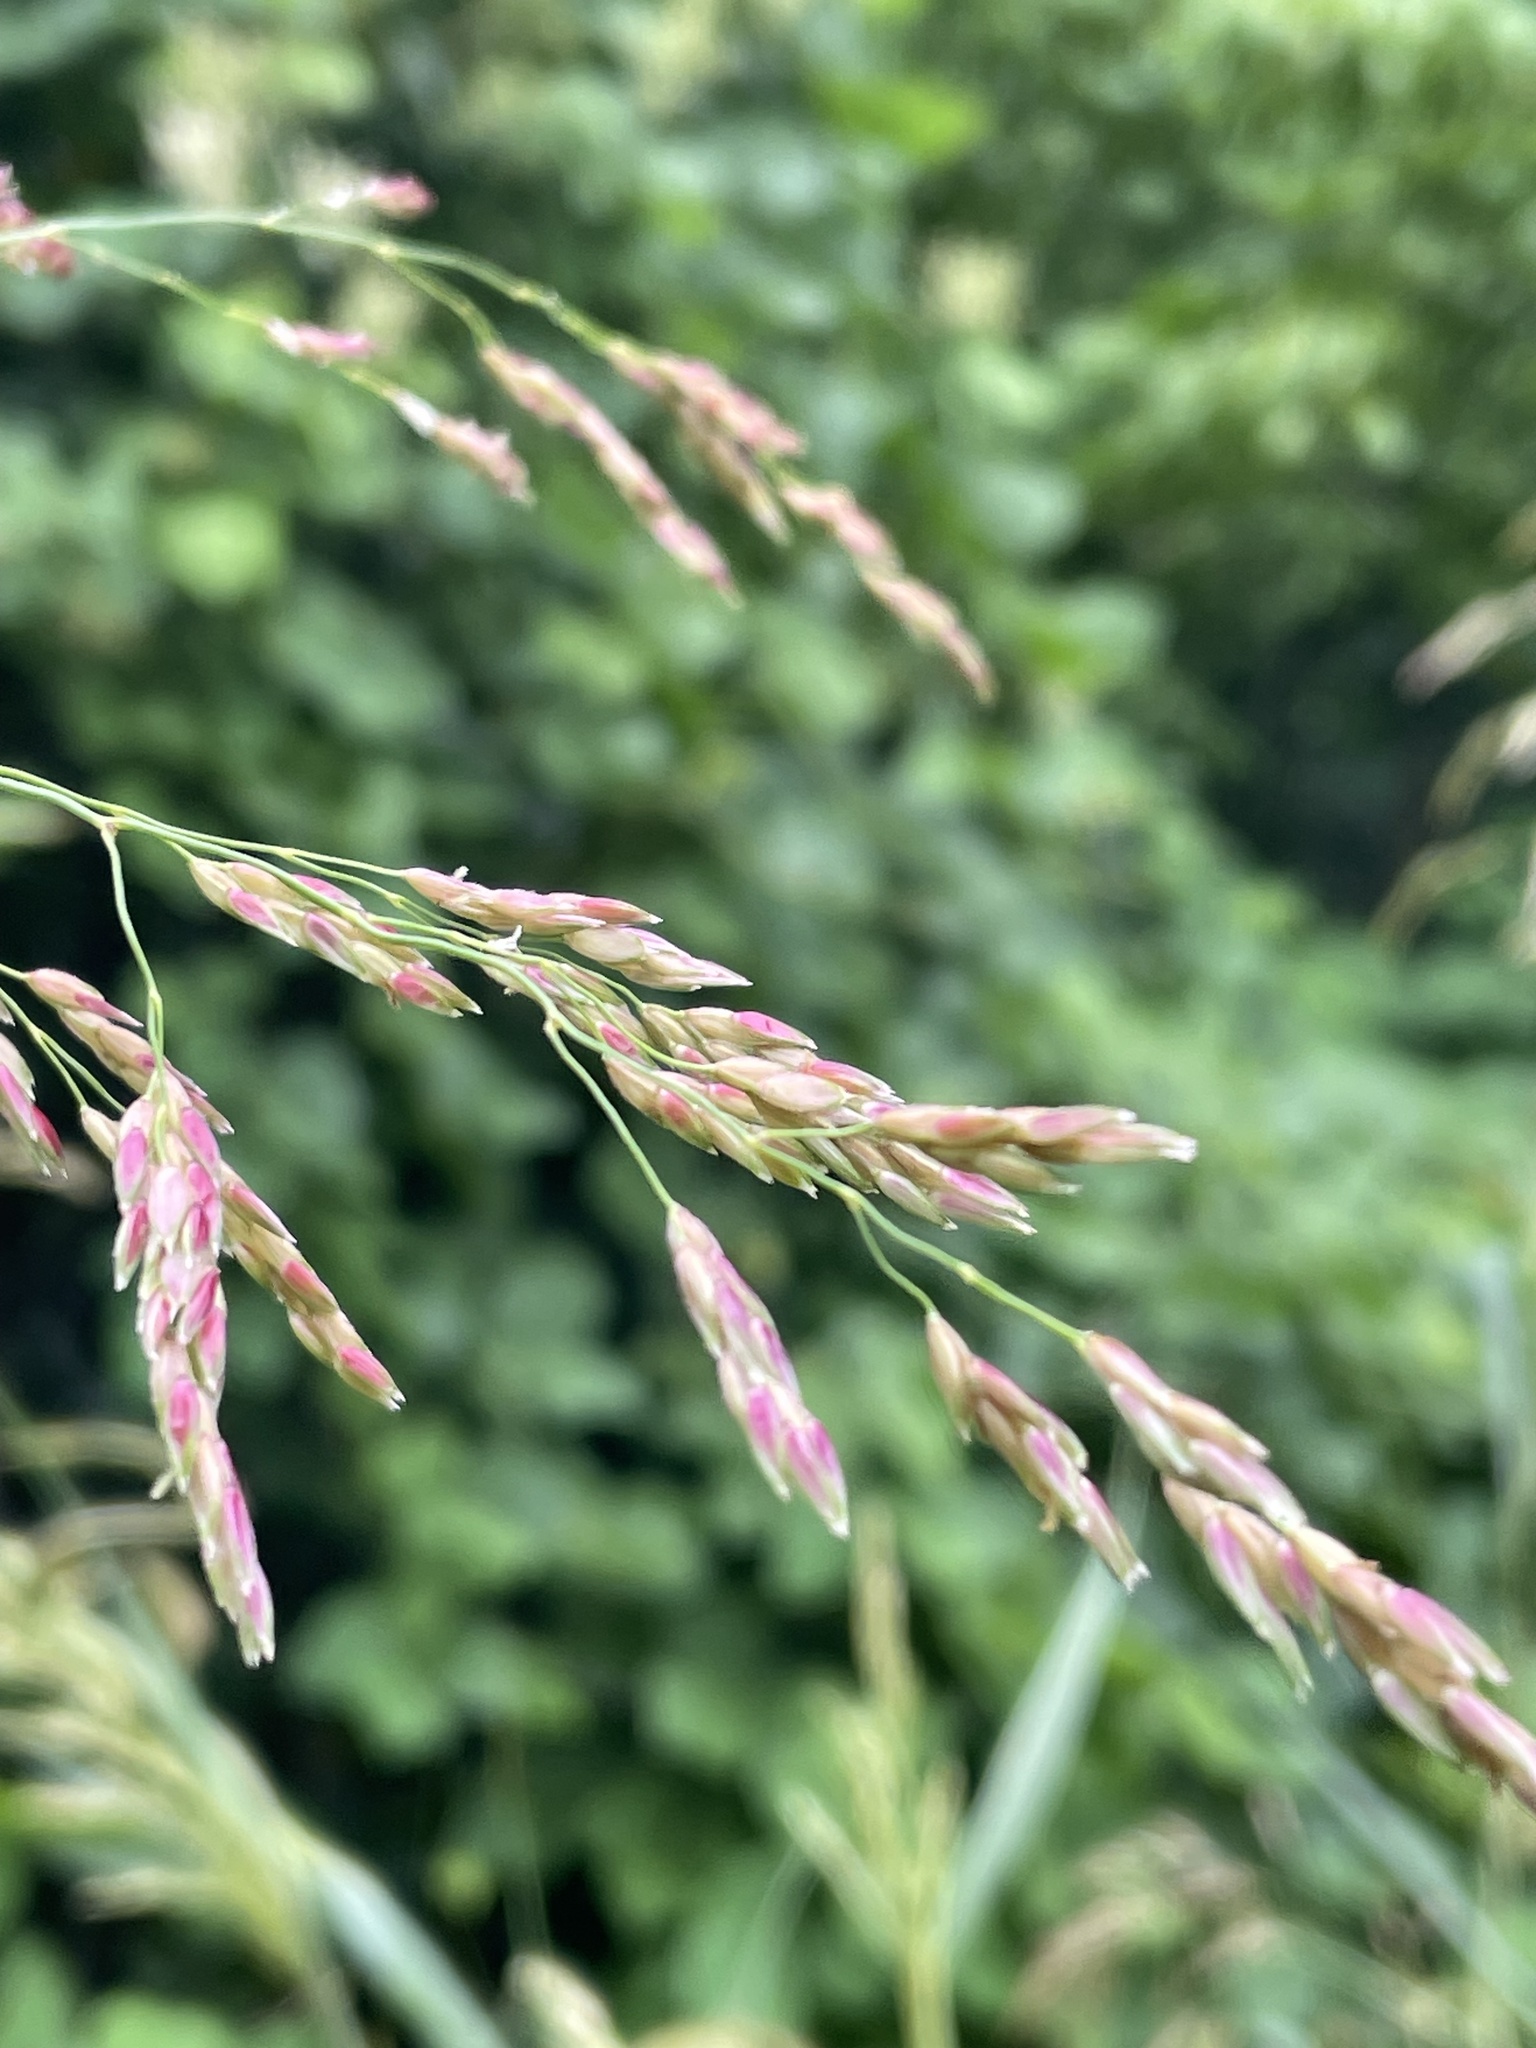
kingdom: Plantae
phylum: Tracheophyta
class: Liliopsida
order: Poales
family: Poaceae
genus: Sorghum
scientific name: Sorghum halepense
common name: Johnson-grass
